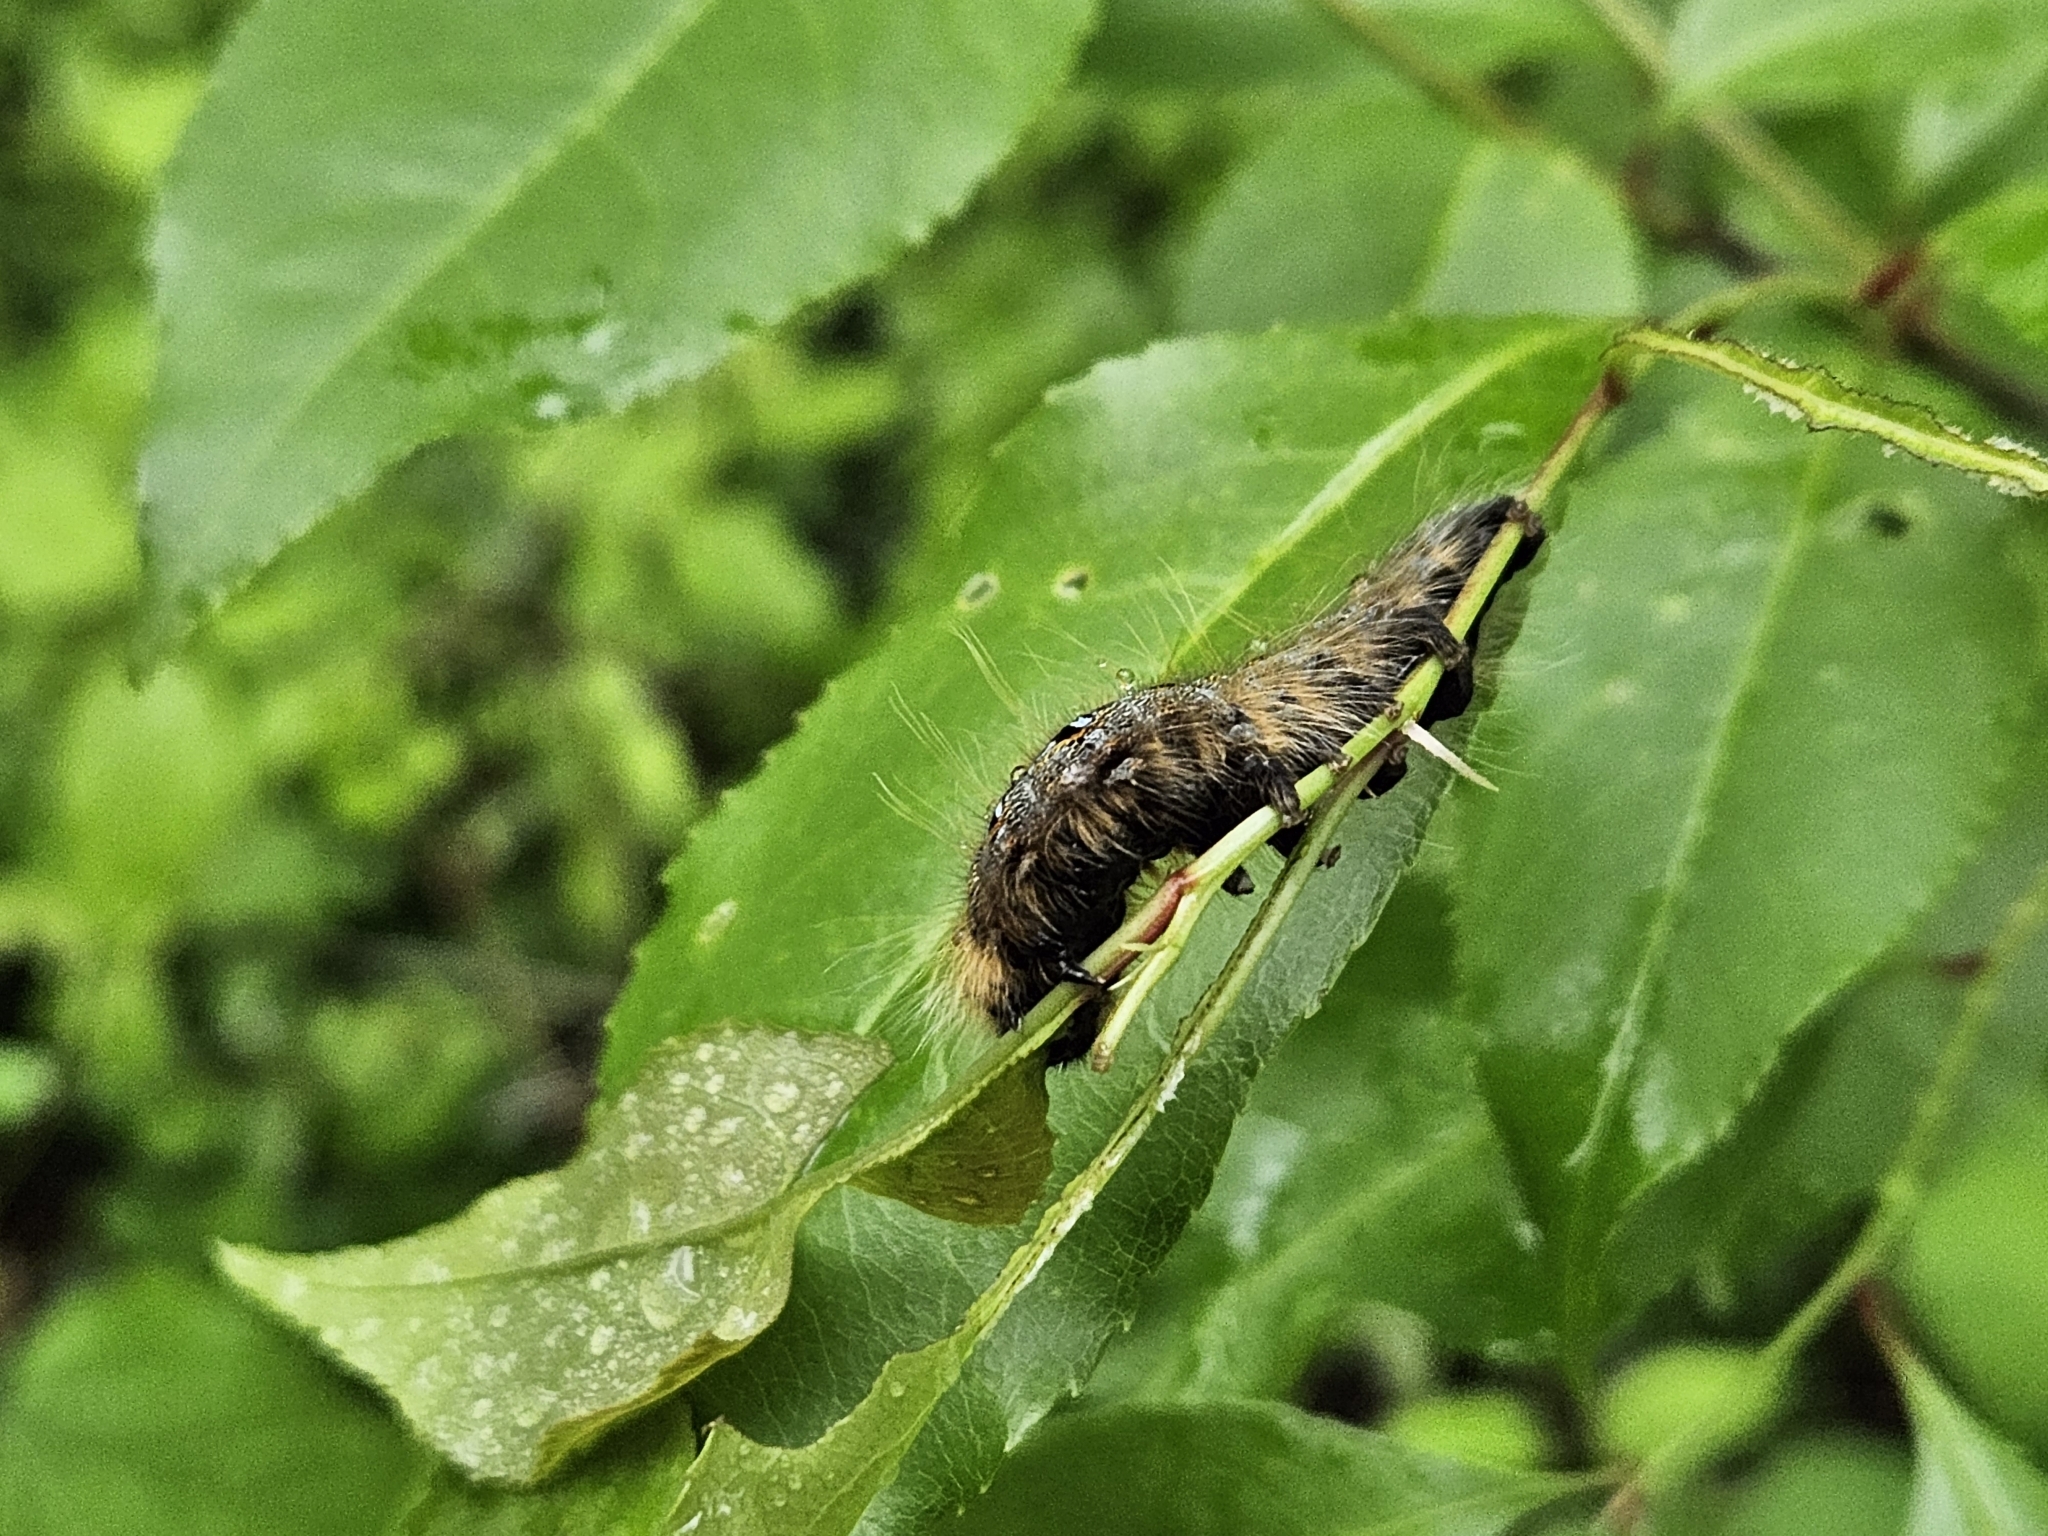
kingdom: Animalia
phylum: Arthropoda
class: Insecta
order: Lepidoptera
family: Lasiocampidae
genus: Malacosoma
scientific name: Malacosoma americana
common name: Eastern tent caterpillar moth
